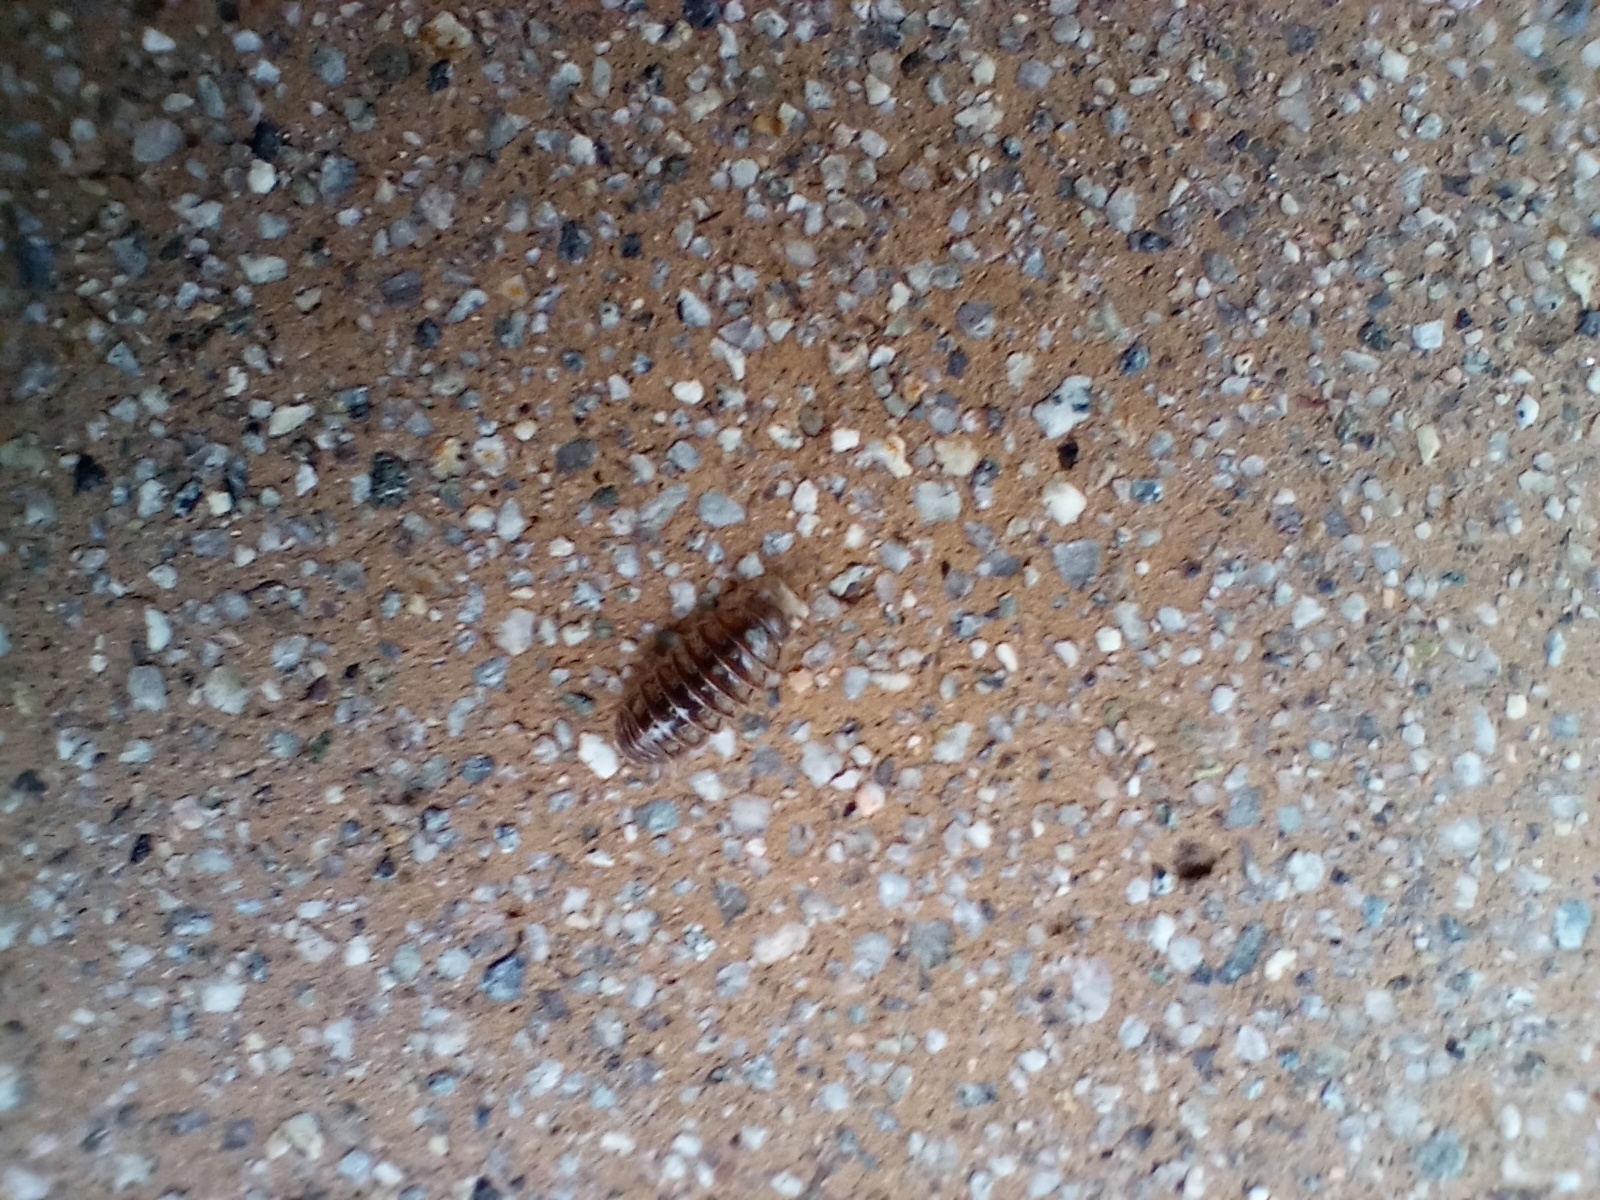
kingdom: Animalia
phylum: Arthropoda
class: Malacostraca
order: Isopoda
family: Armadillidiidae
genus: Armadillidium
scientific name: Armadillidium vulgare
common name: Common pill woodlouse
